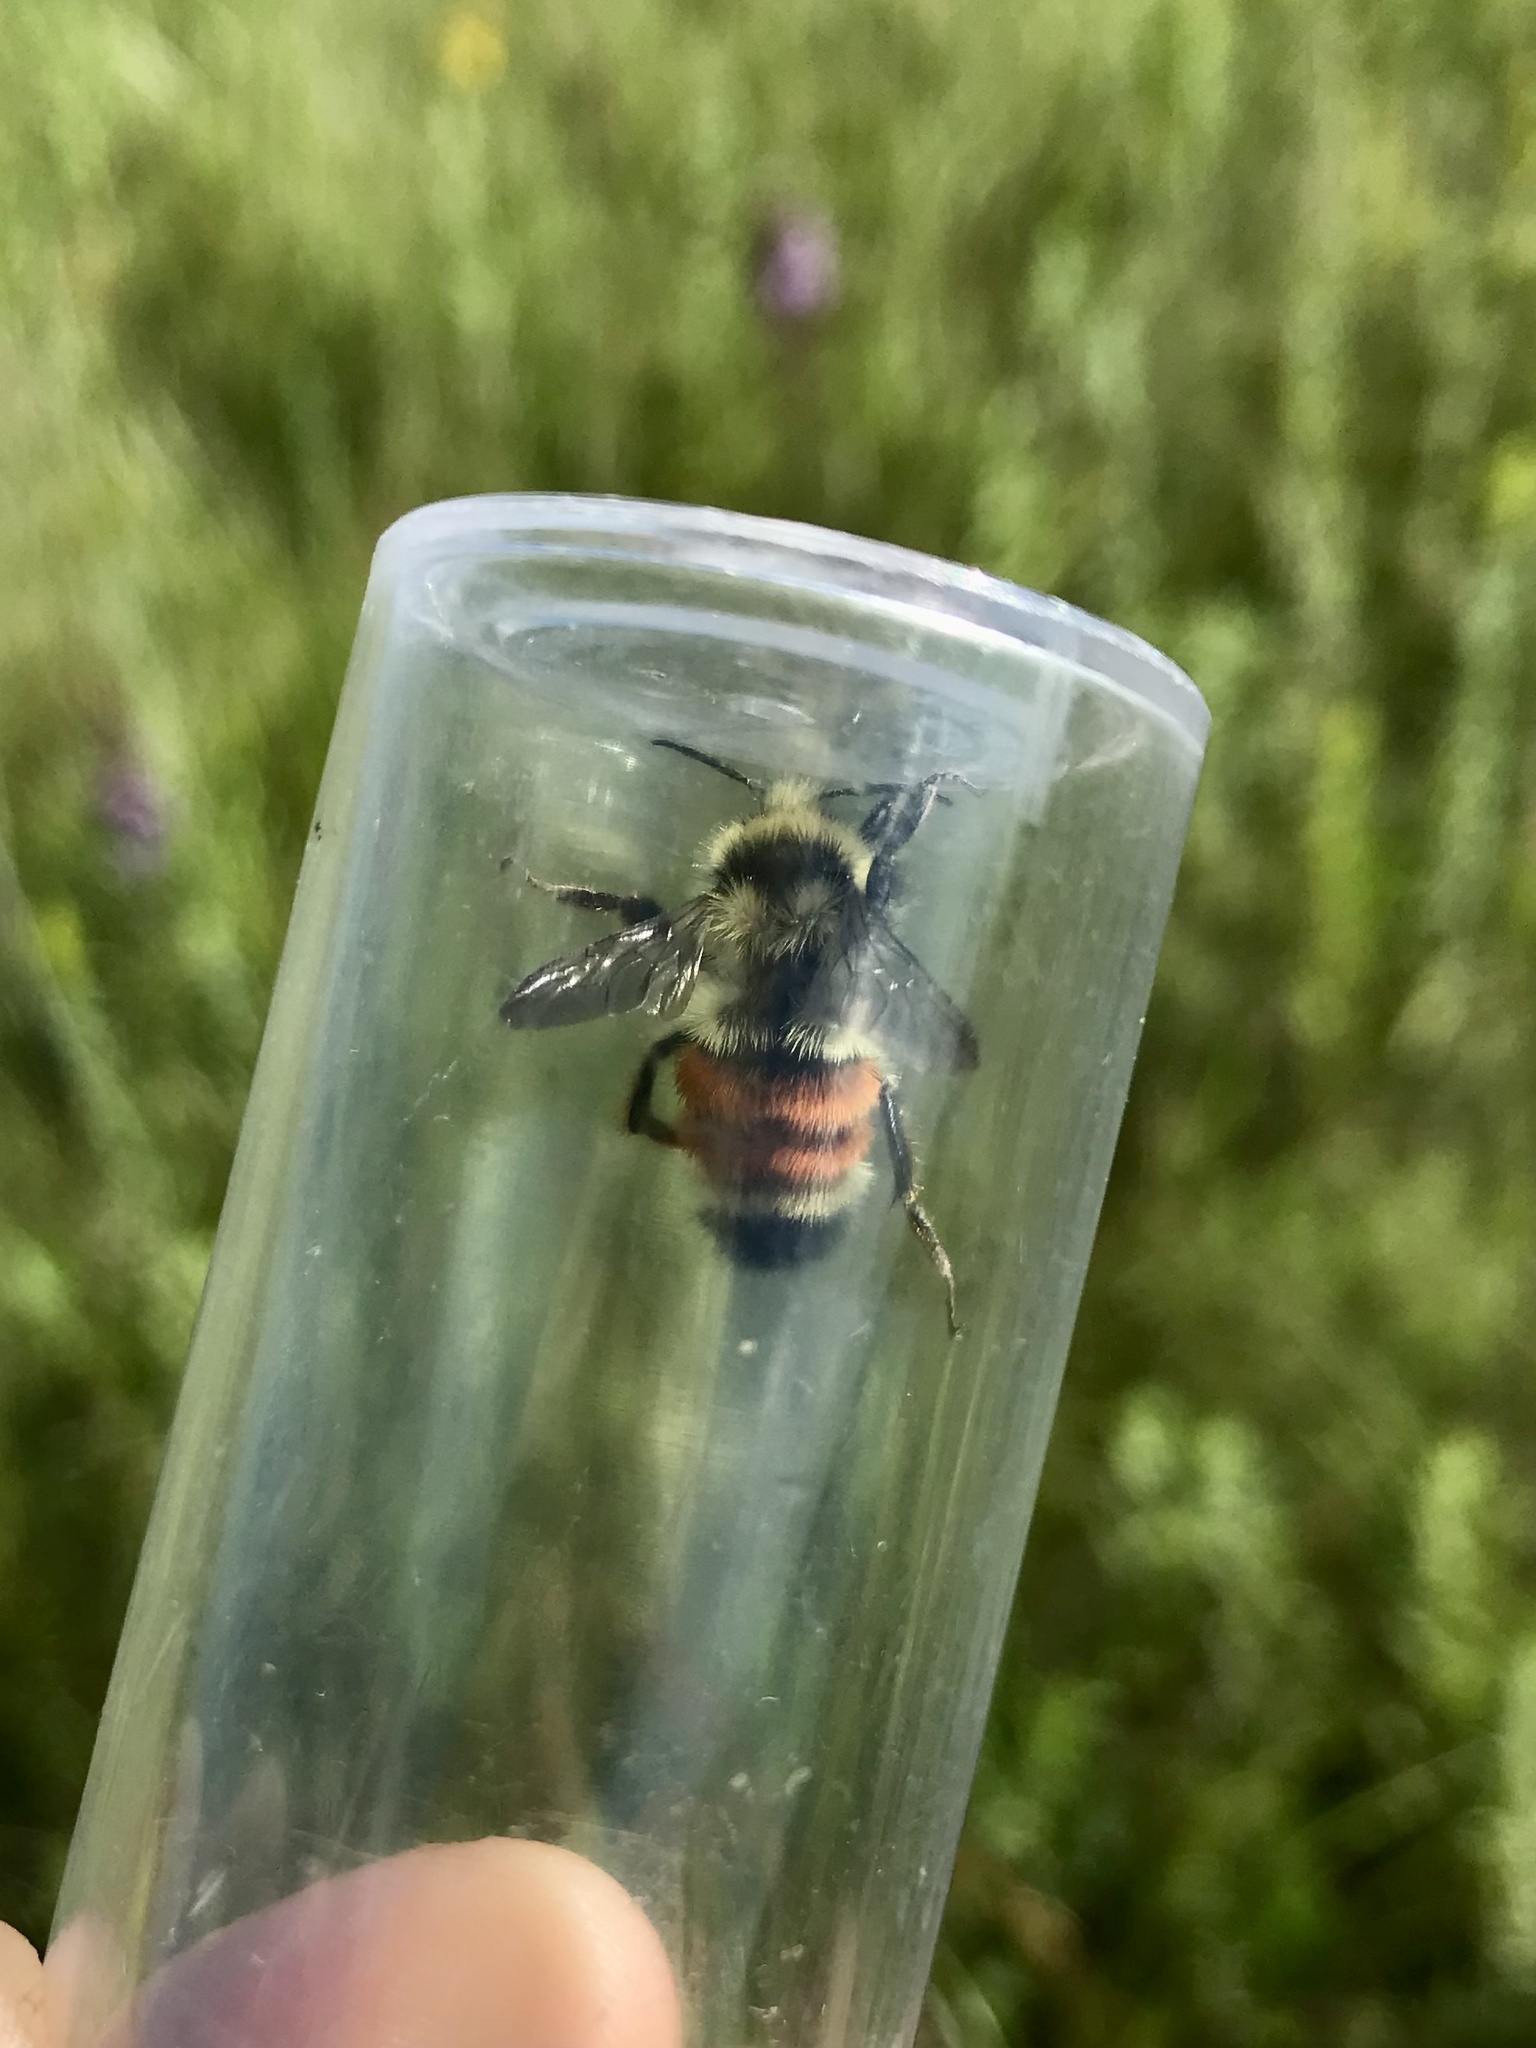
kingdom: Animalia
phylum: Arthropoda
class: Insecta
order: Hymenoptera
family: Apidae
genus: Bombus
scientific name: Bombus ternarius
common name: Tri-colored bumble bee
